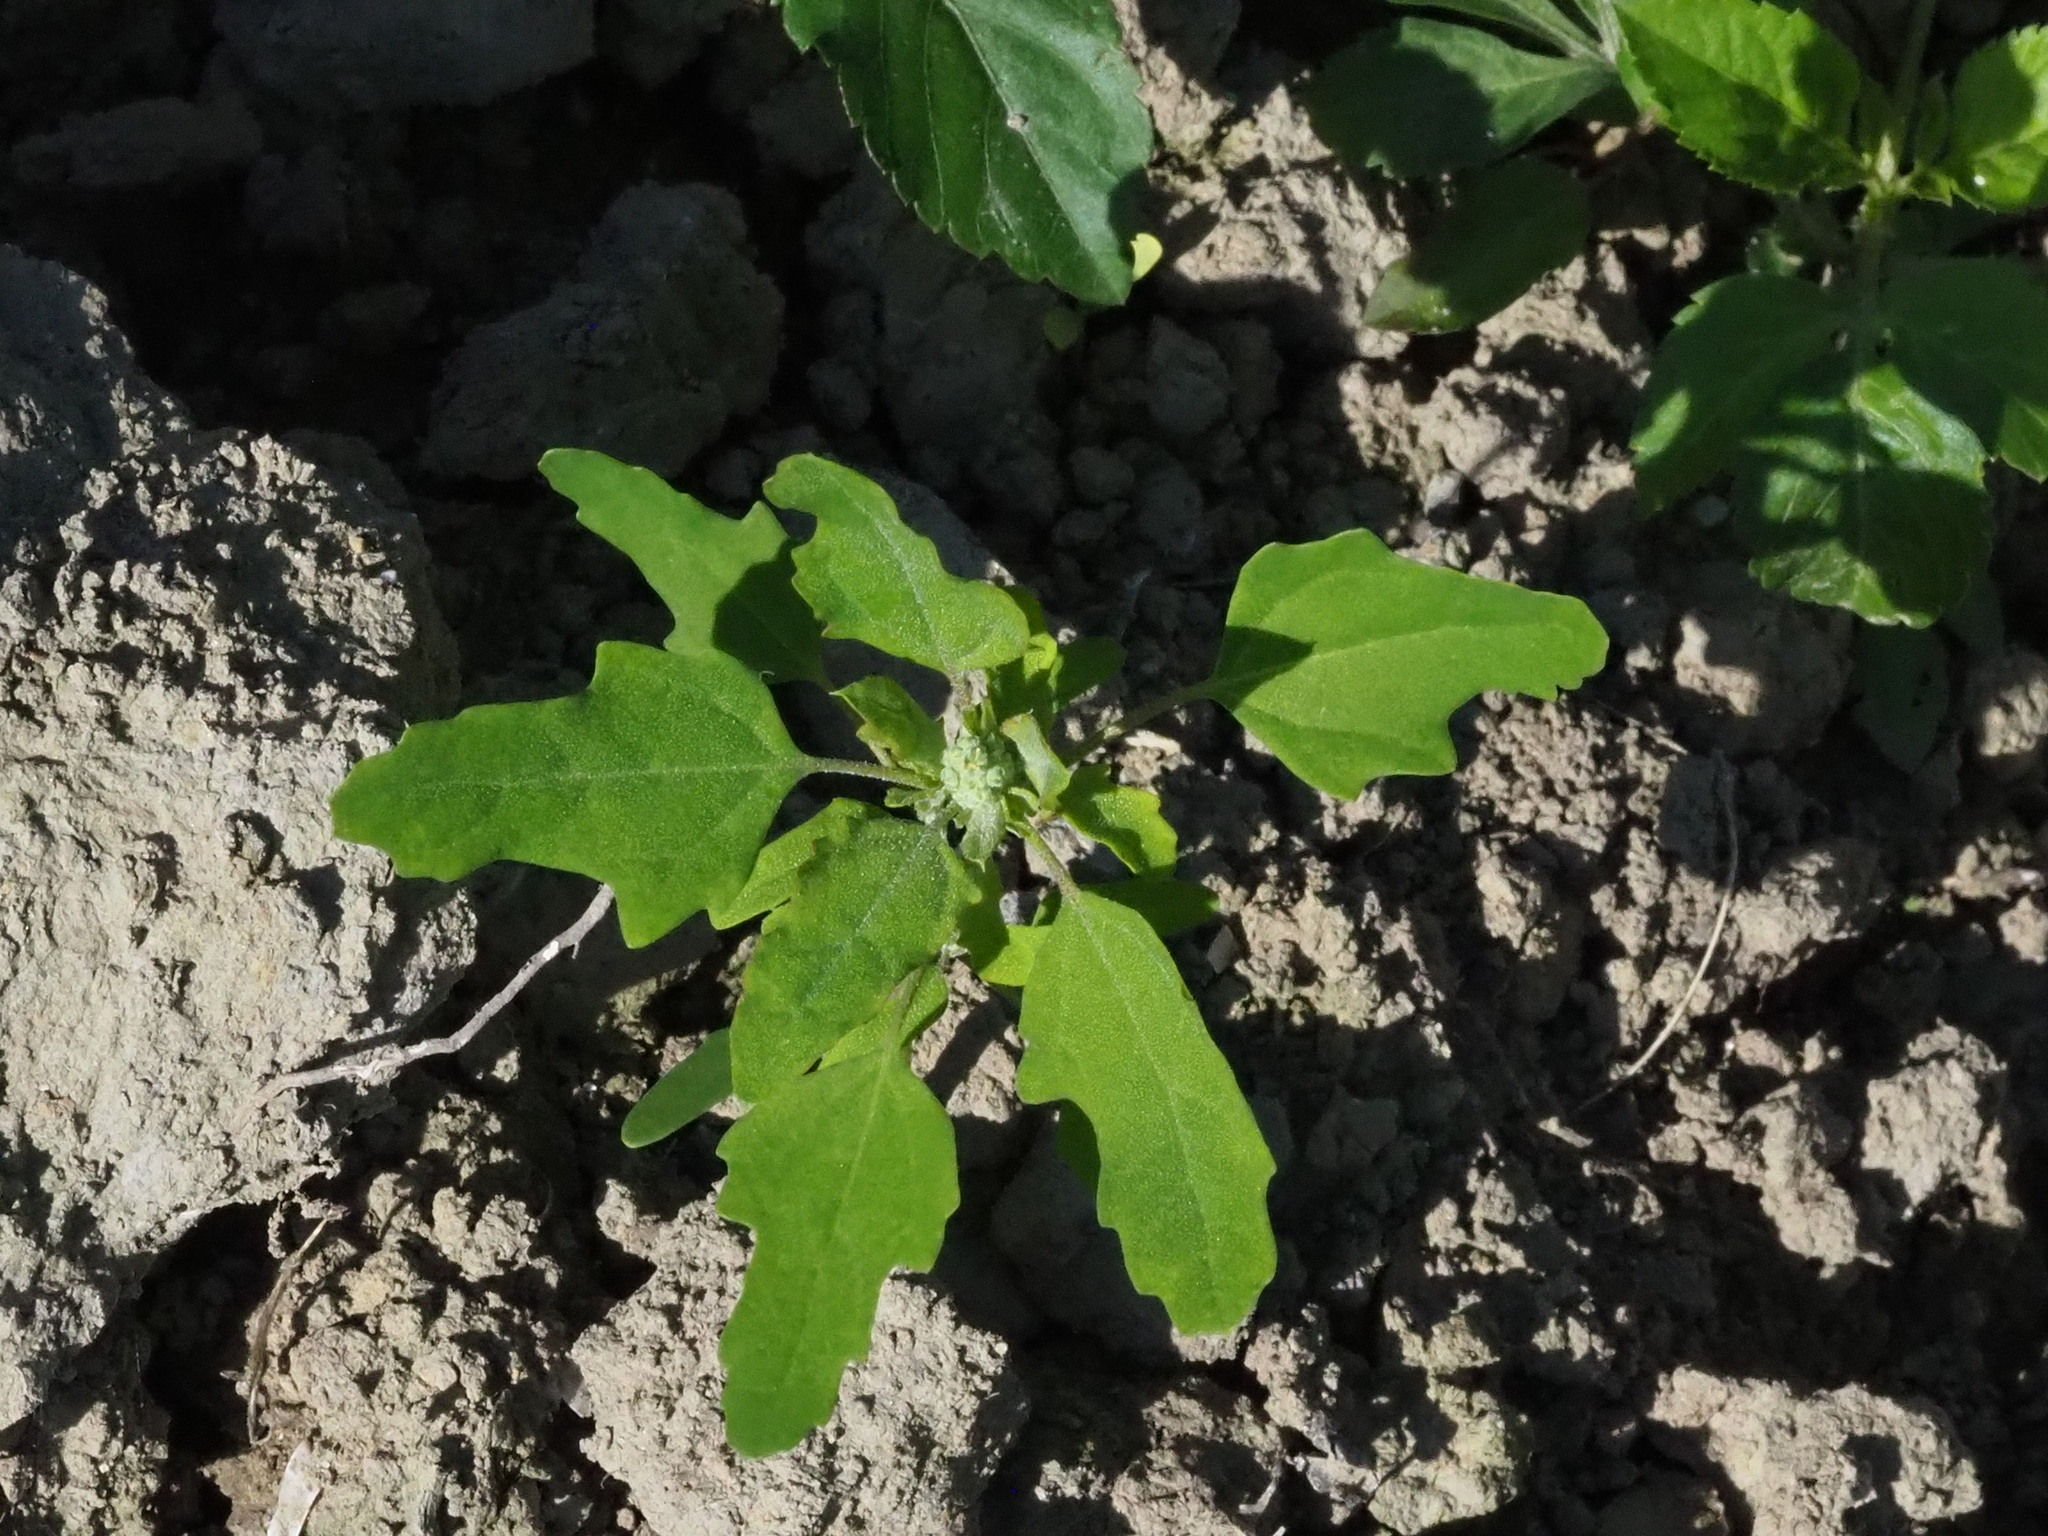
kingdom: Plantae
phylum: Tracheophyta
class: Magnoliopsida
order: Caryophyllales
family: Amaranthaceae
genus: Chenopodium
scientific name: Chenopodium ficifolium
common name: Fig-leaved goosefoot
